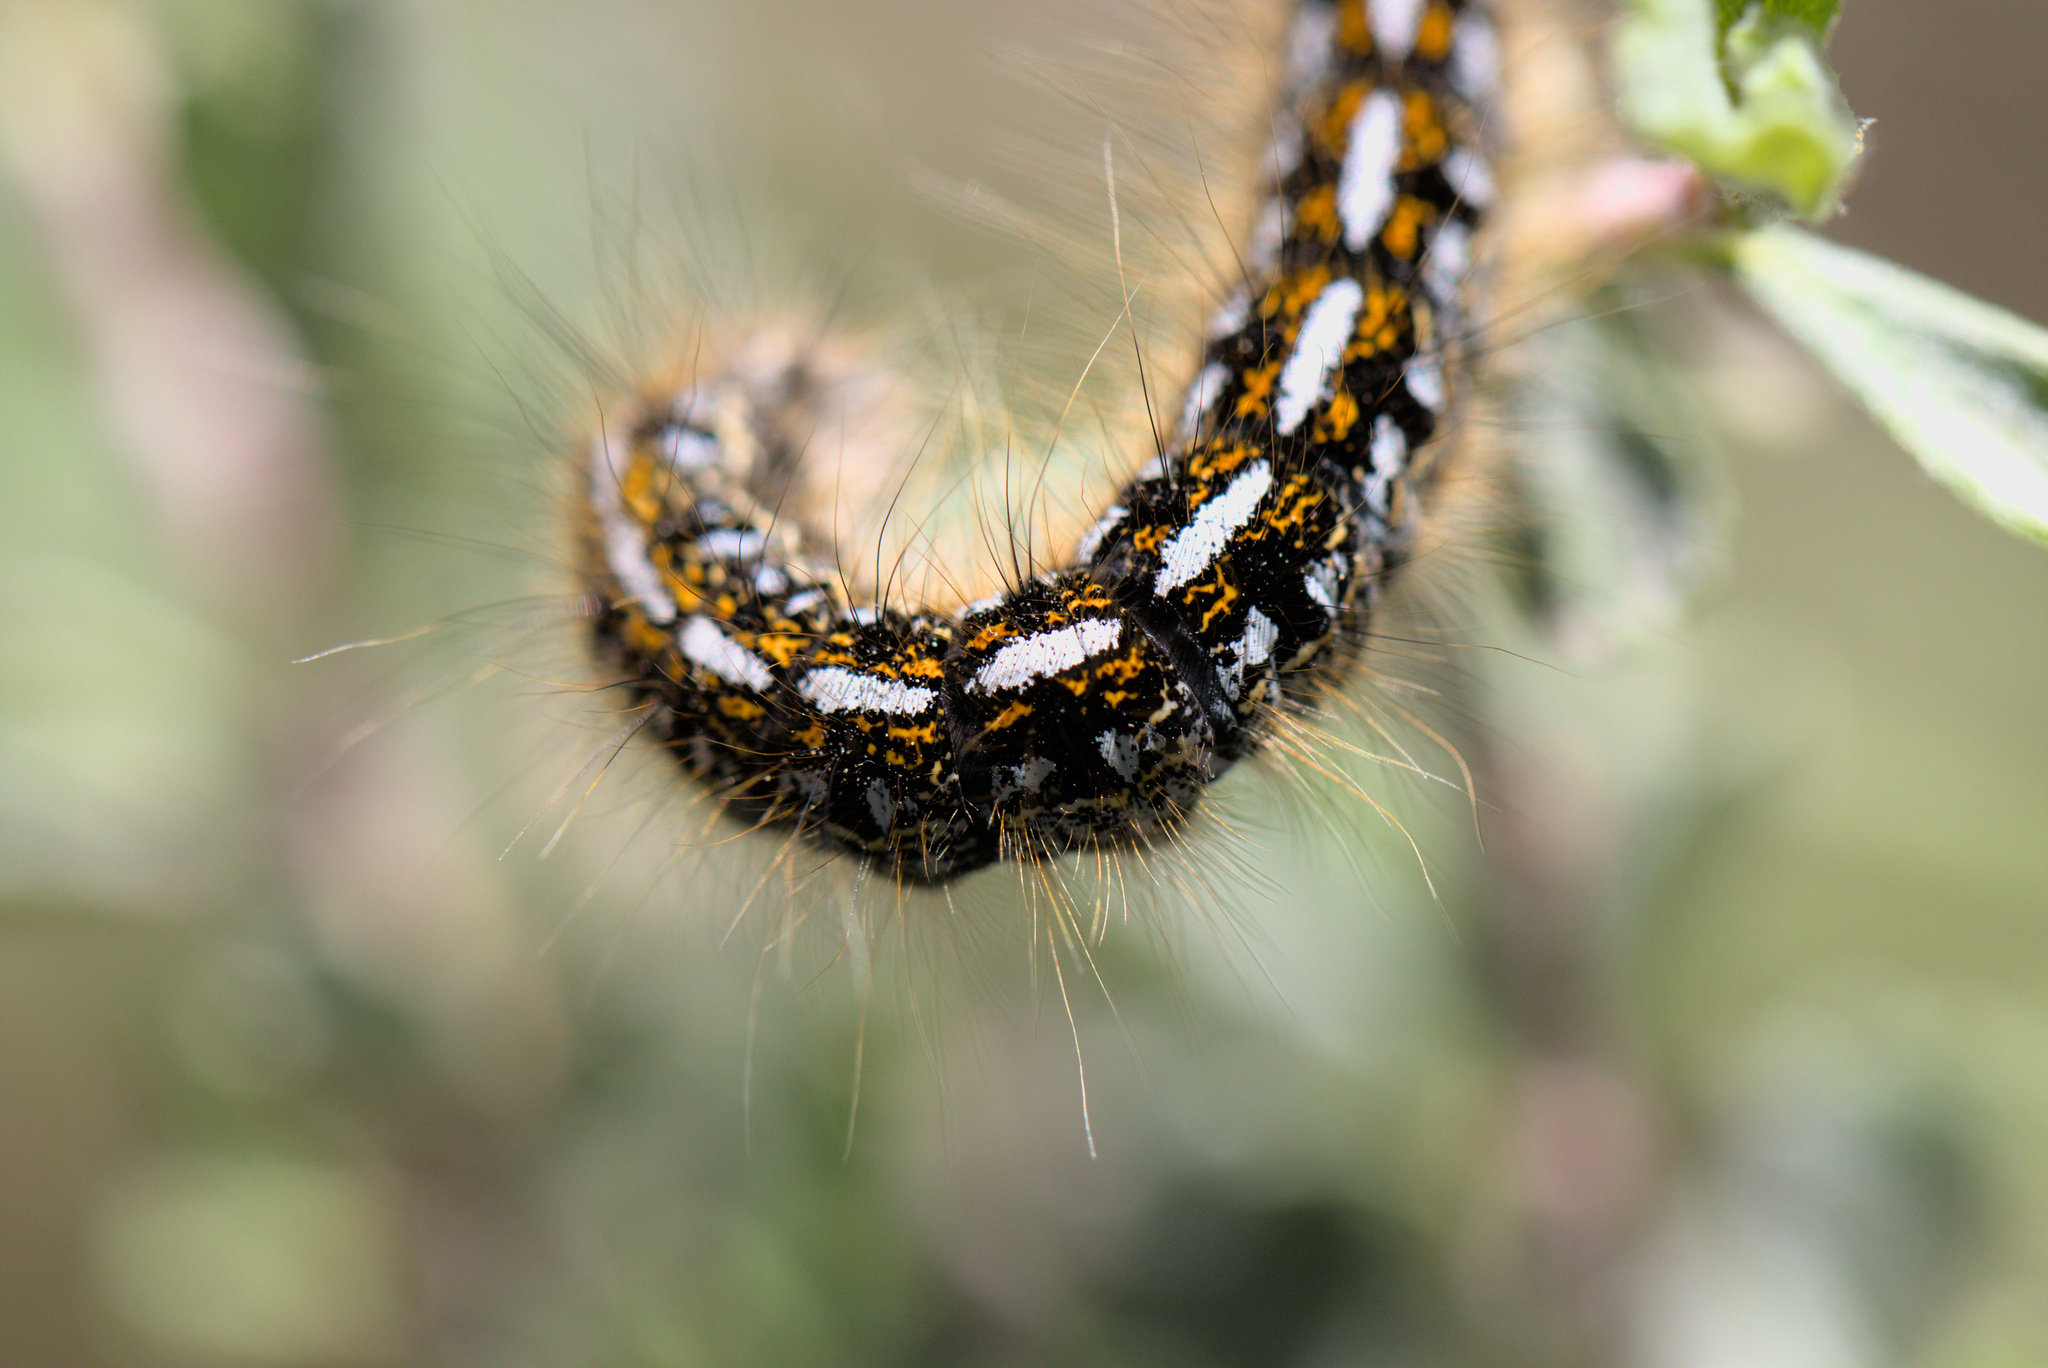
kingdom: Animalia
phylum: Arthropoda
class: Insecta
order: Lepidoptera
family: Lasiocampidae
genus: Malacosoma
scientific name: Malacosoma californica
